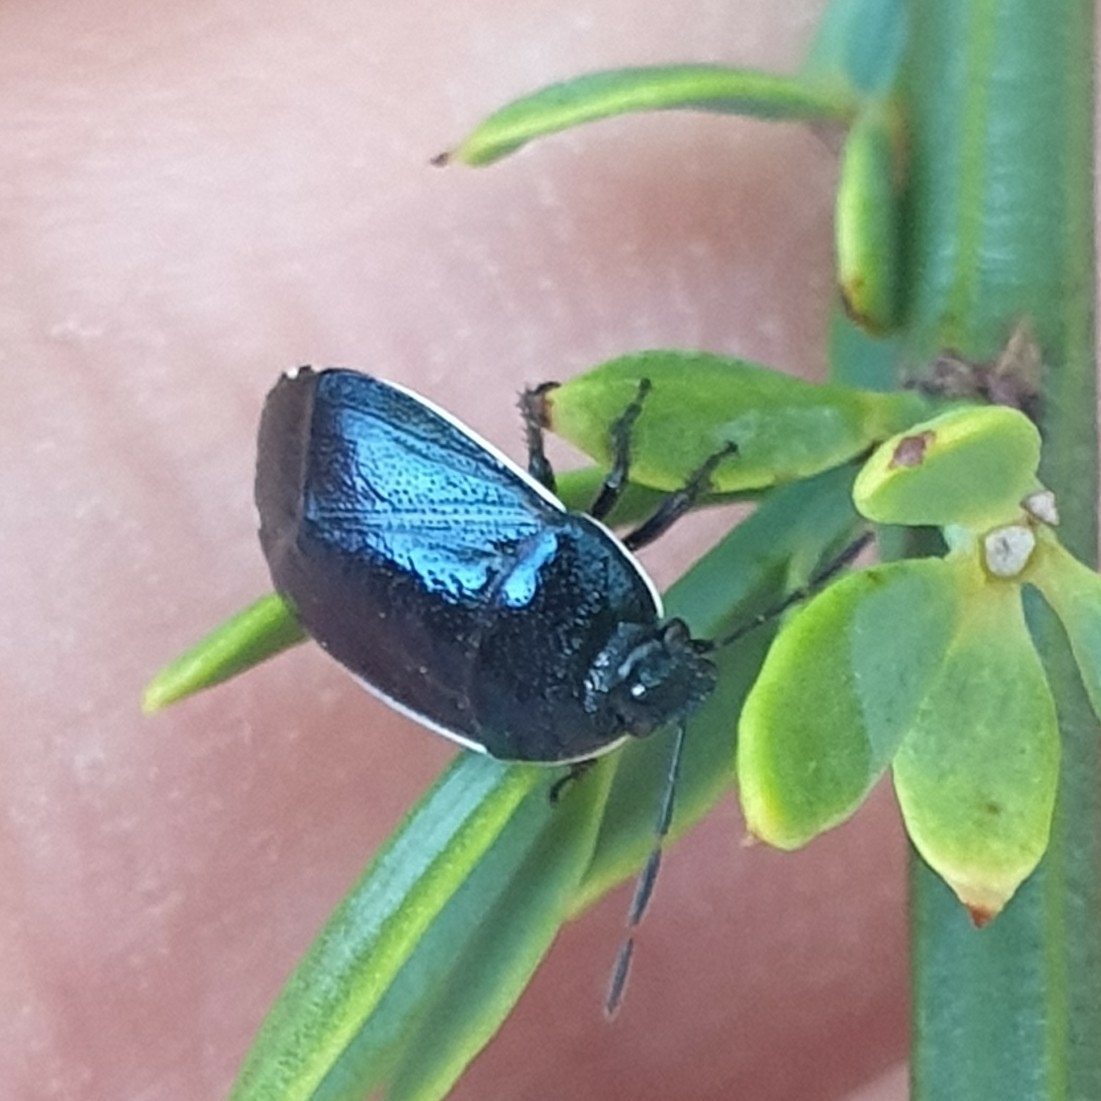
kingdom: Animalia
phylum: Arthropoda
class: Insecta
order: Hemiptera
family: Cydnidae
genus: Canthophorus
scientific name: Canthophorus melanopterus
